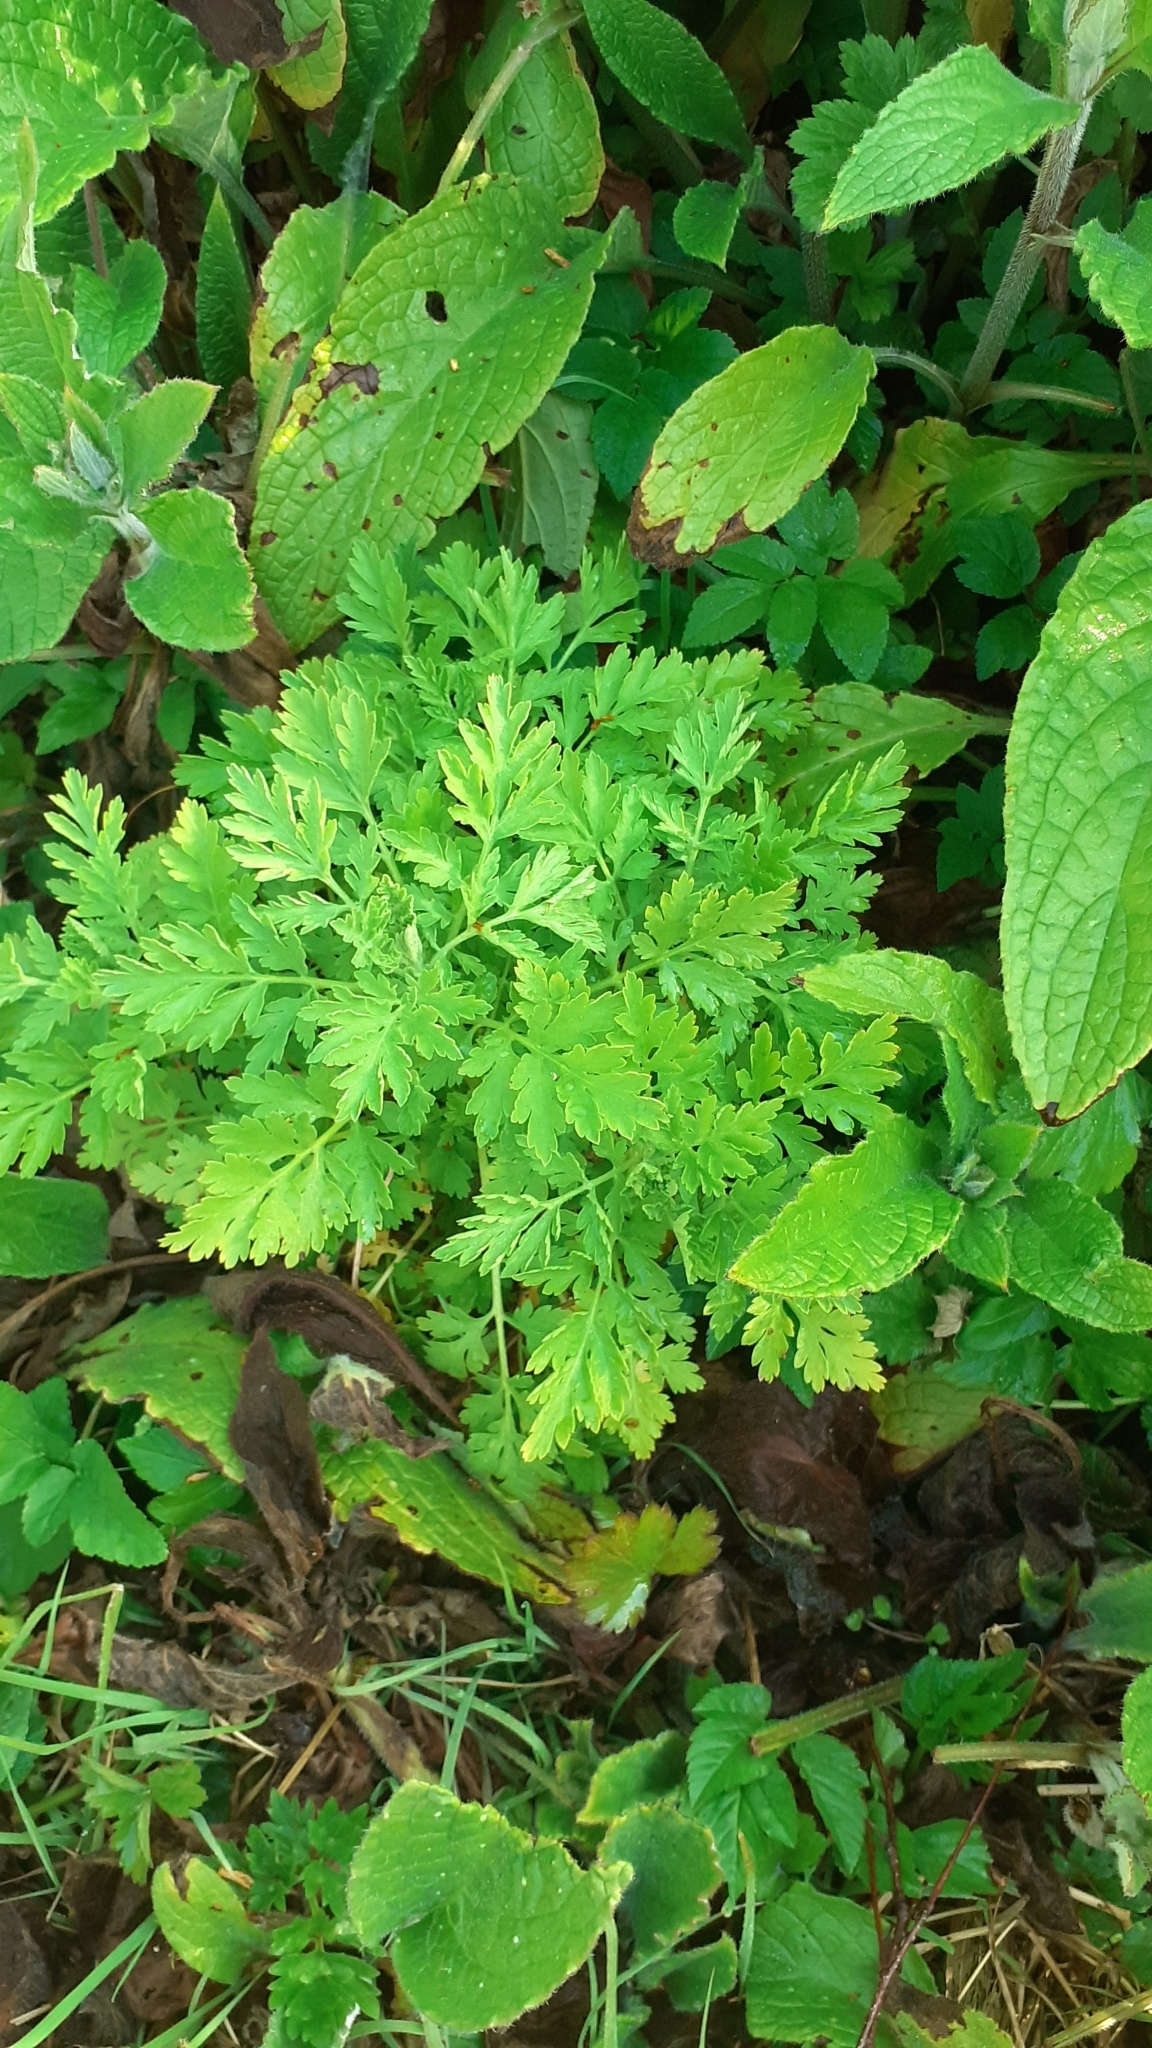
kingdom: Plantae
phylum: Tracheophyta
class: Magnoliopsida
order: Asterales
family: Asteraceae
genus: Tanacetum
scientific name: Tanacetum parthenium
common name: Feverfew
